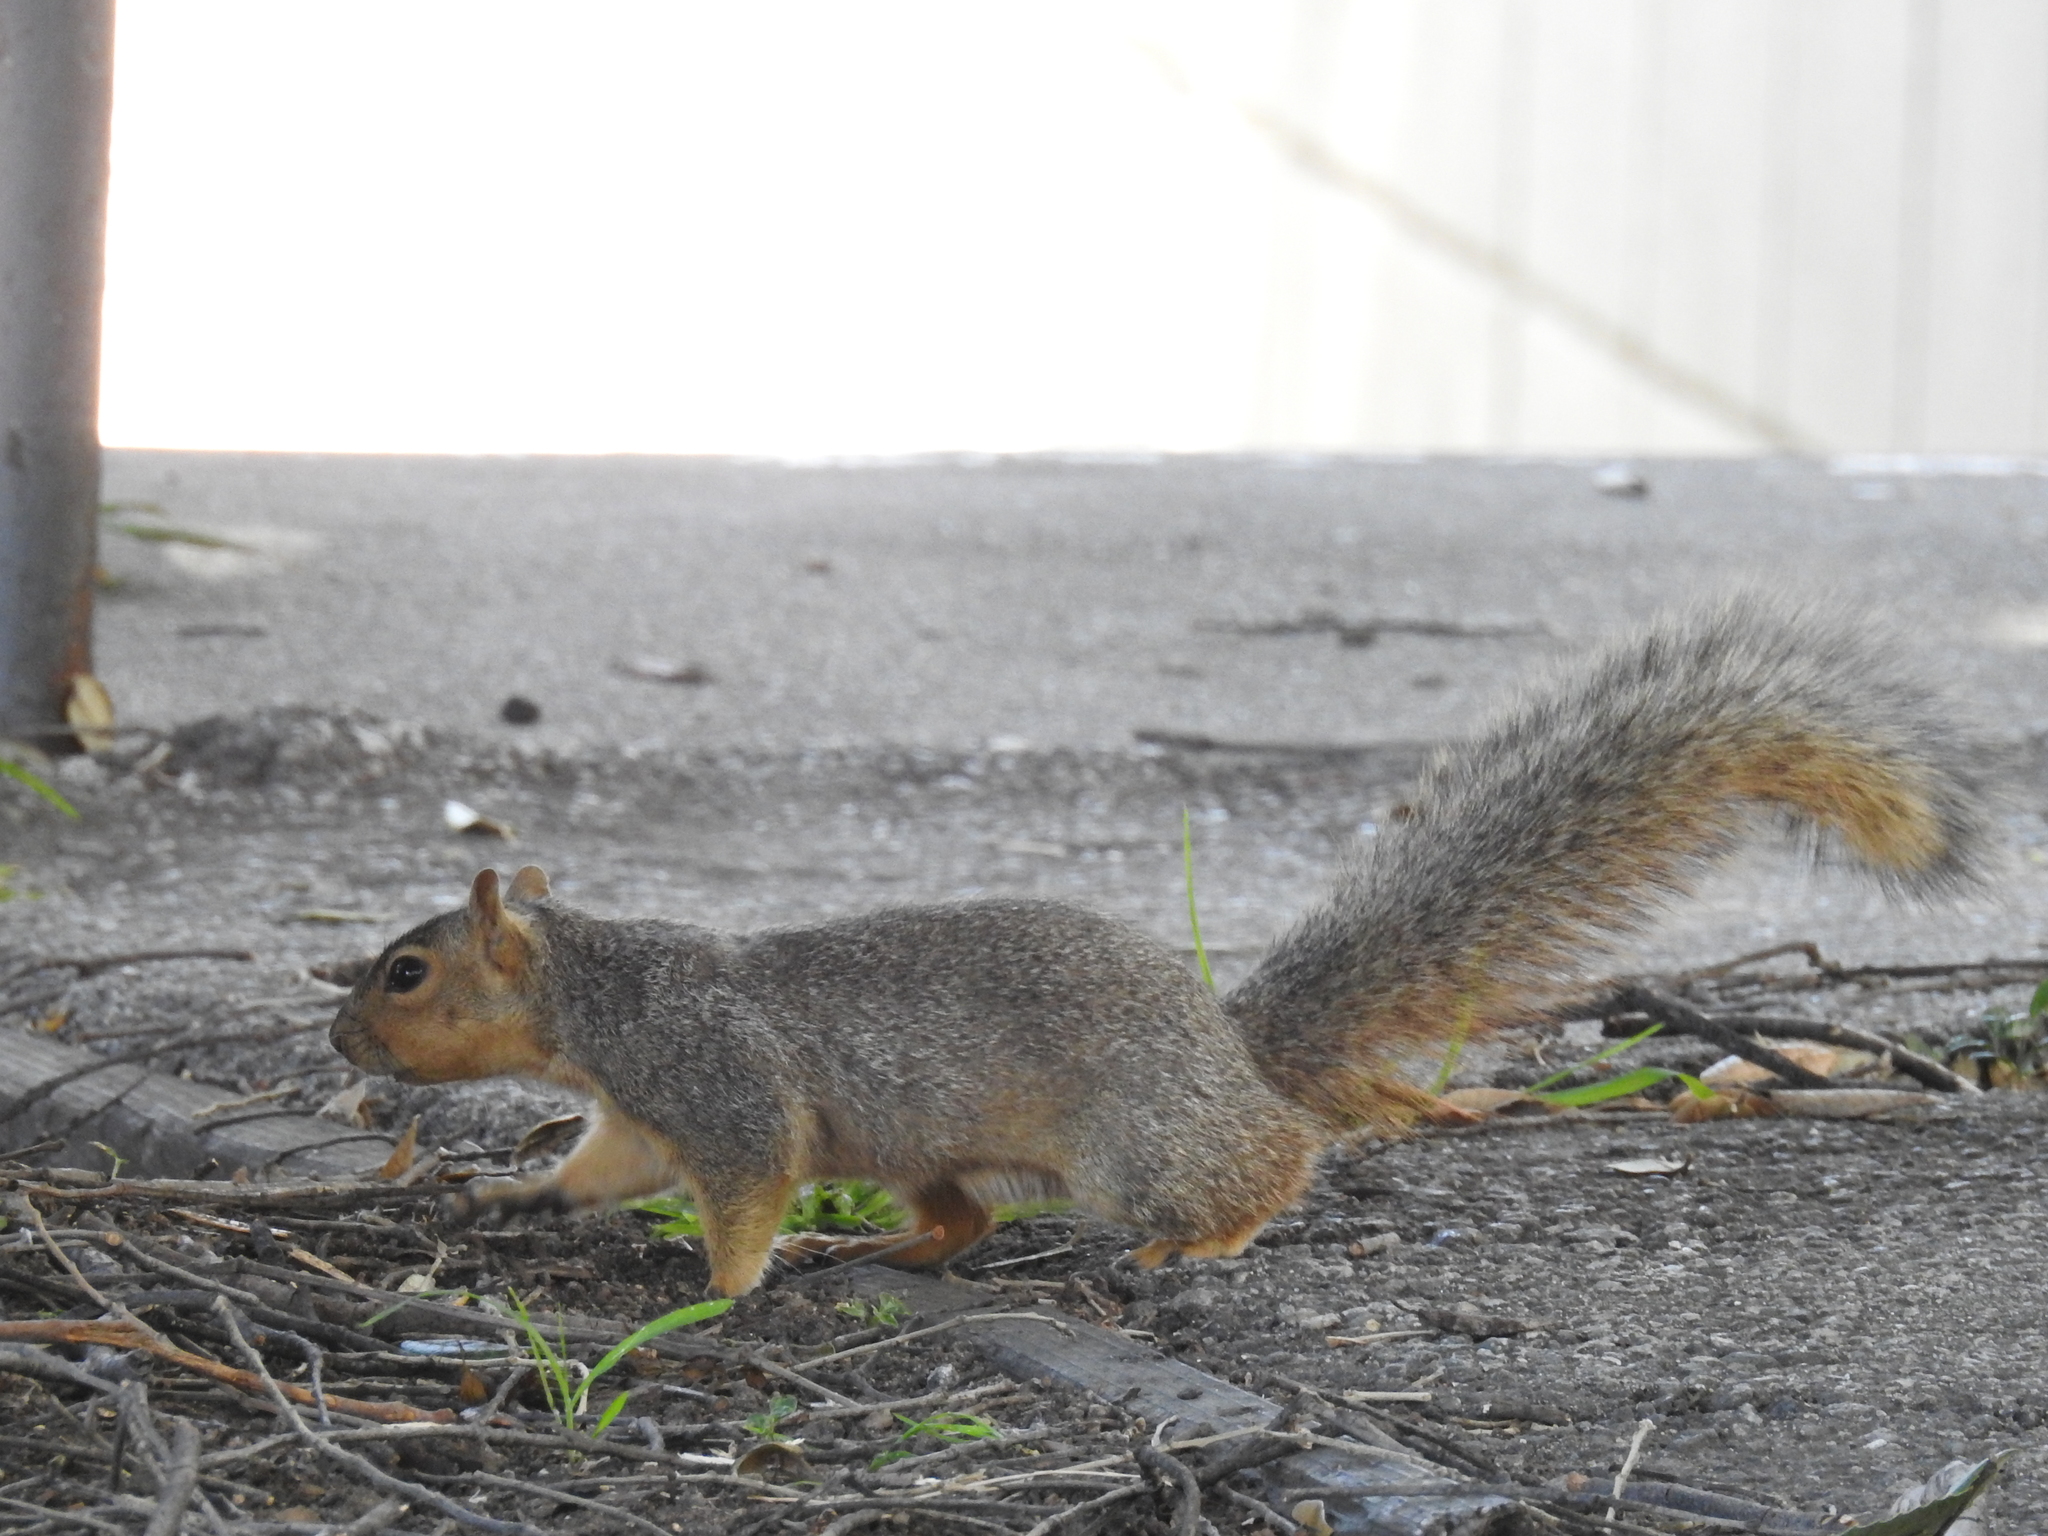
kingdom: Animalia
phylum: Chordata
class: Mammalia
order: Rodentia
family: Sciuridae
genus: Sciurus
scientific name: Sciurus niger
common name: Fox squirrel
